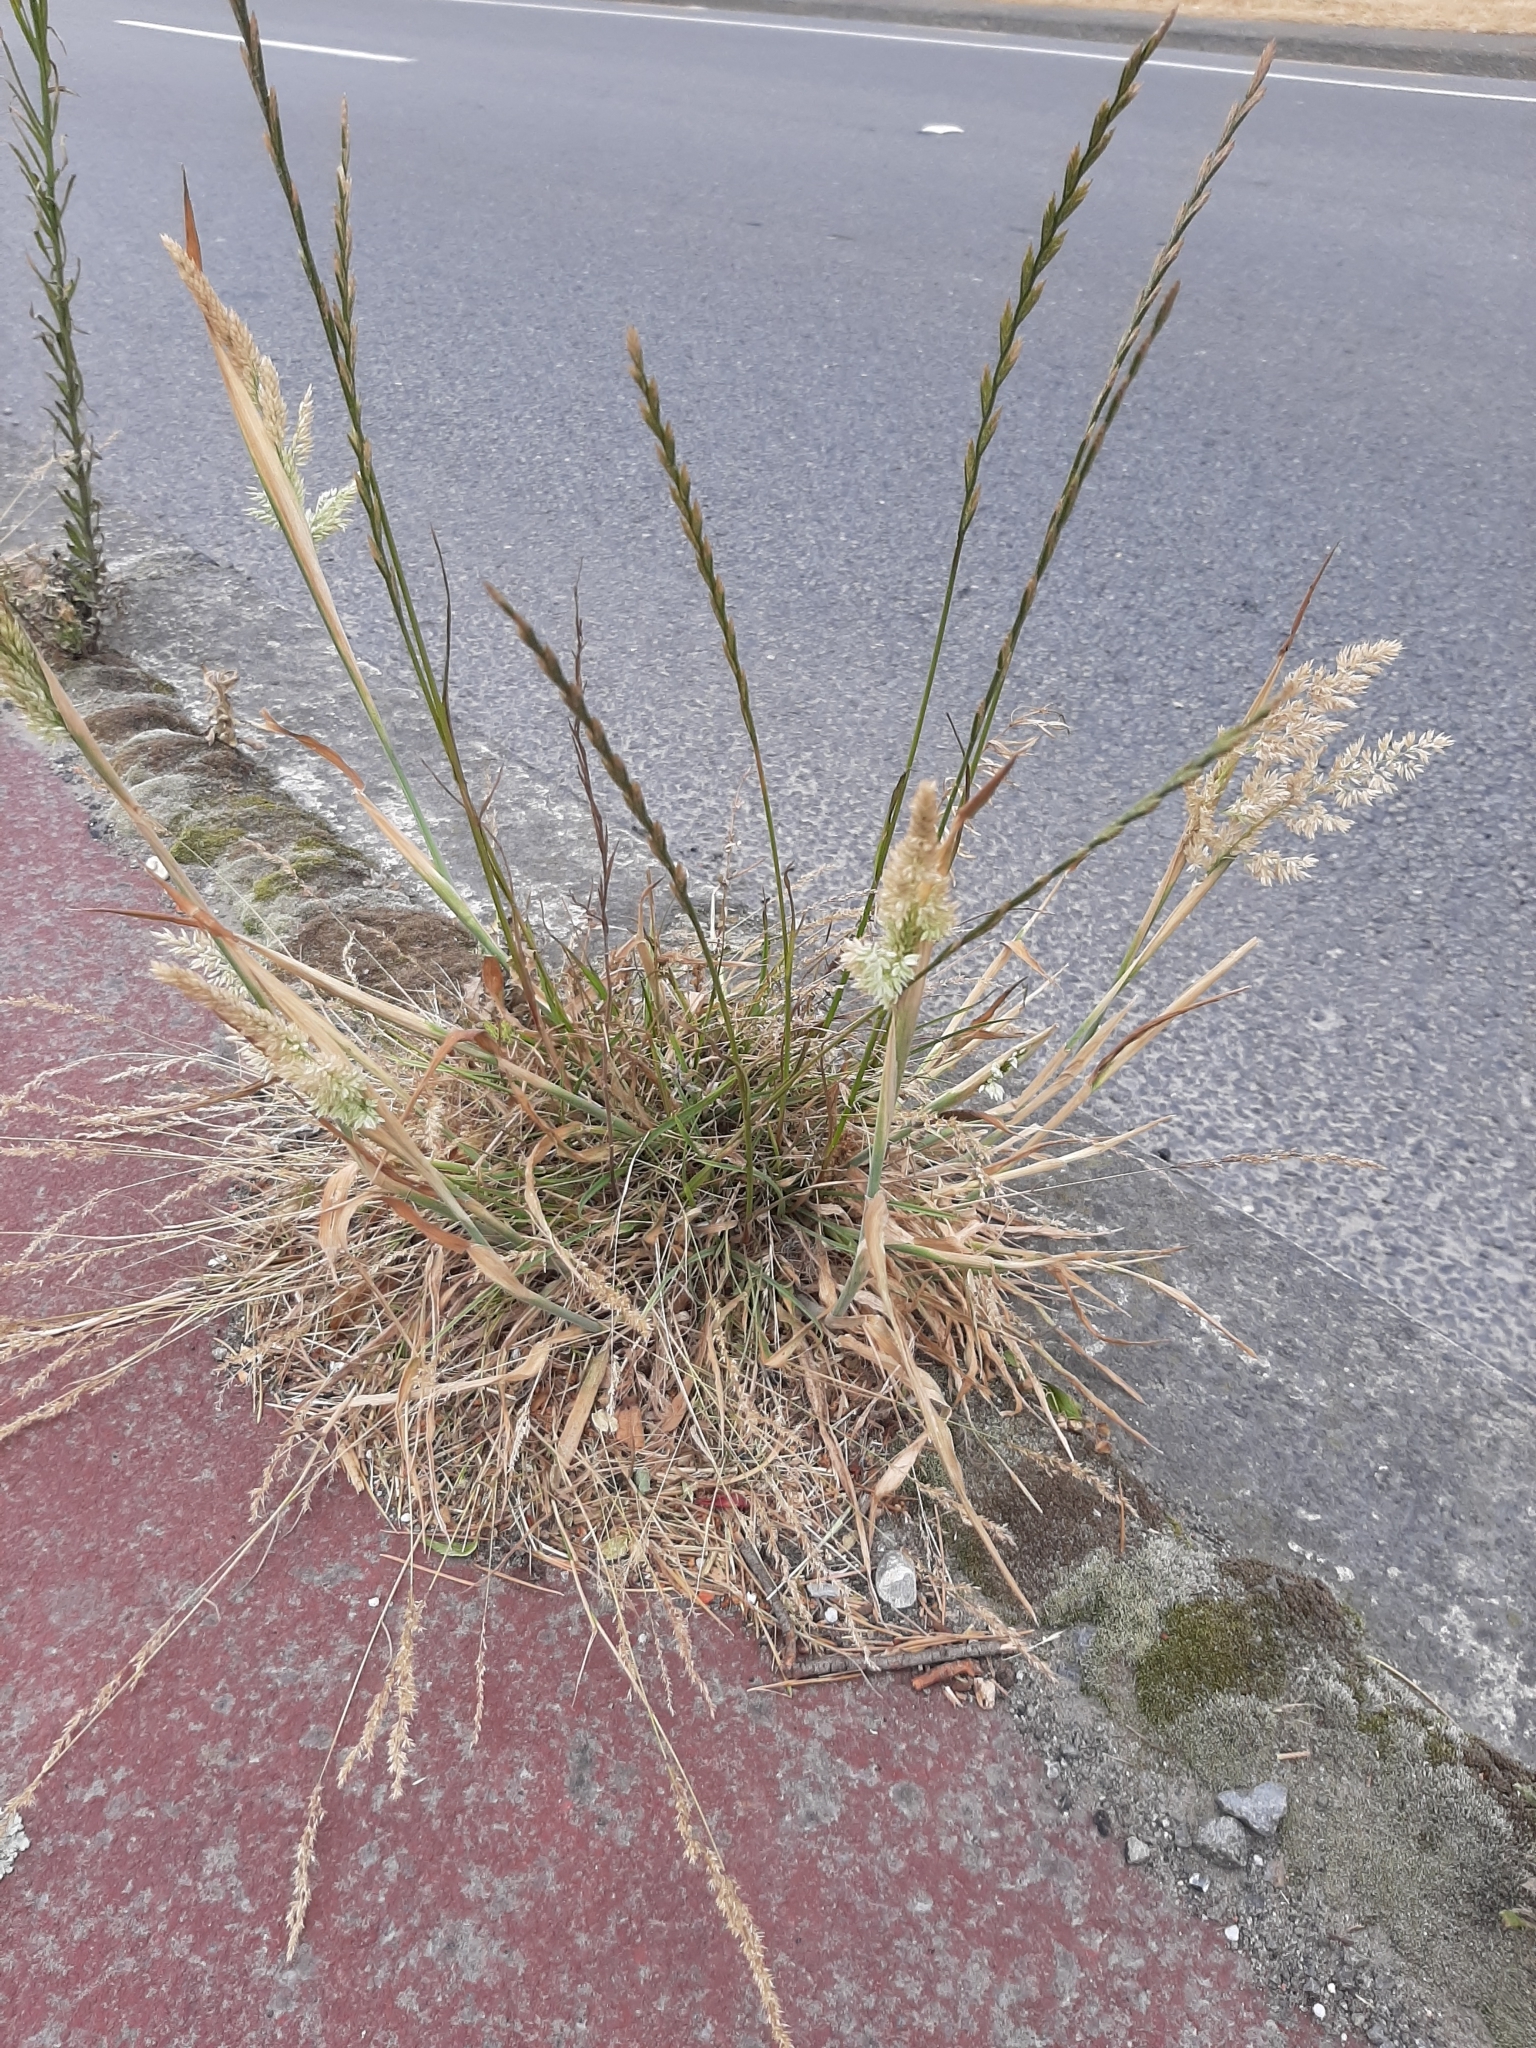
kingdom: Plantae
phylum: Tracheophyta
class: Liliopsida
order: Poales
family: Poaceae
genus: Holcus
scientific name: Holcus lanatus
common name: Yorkshire-fog
